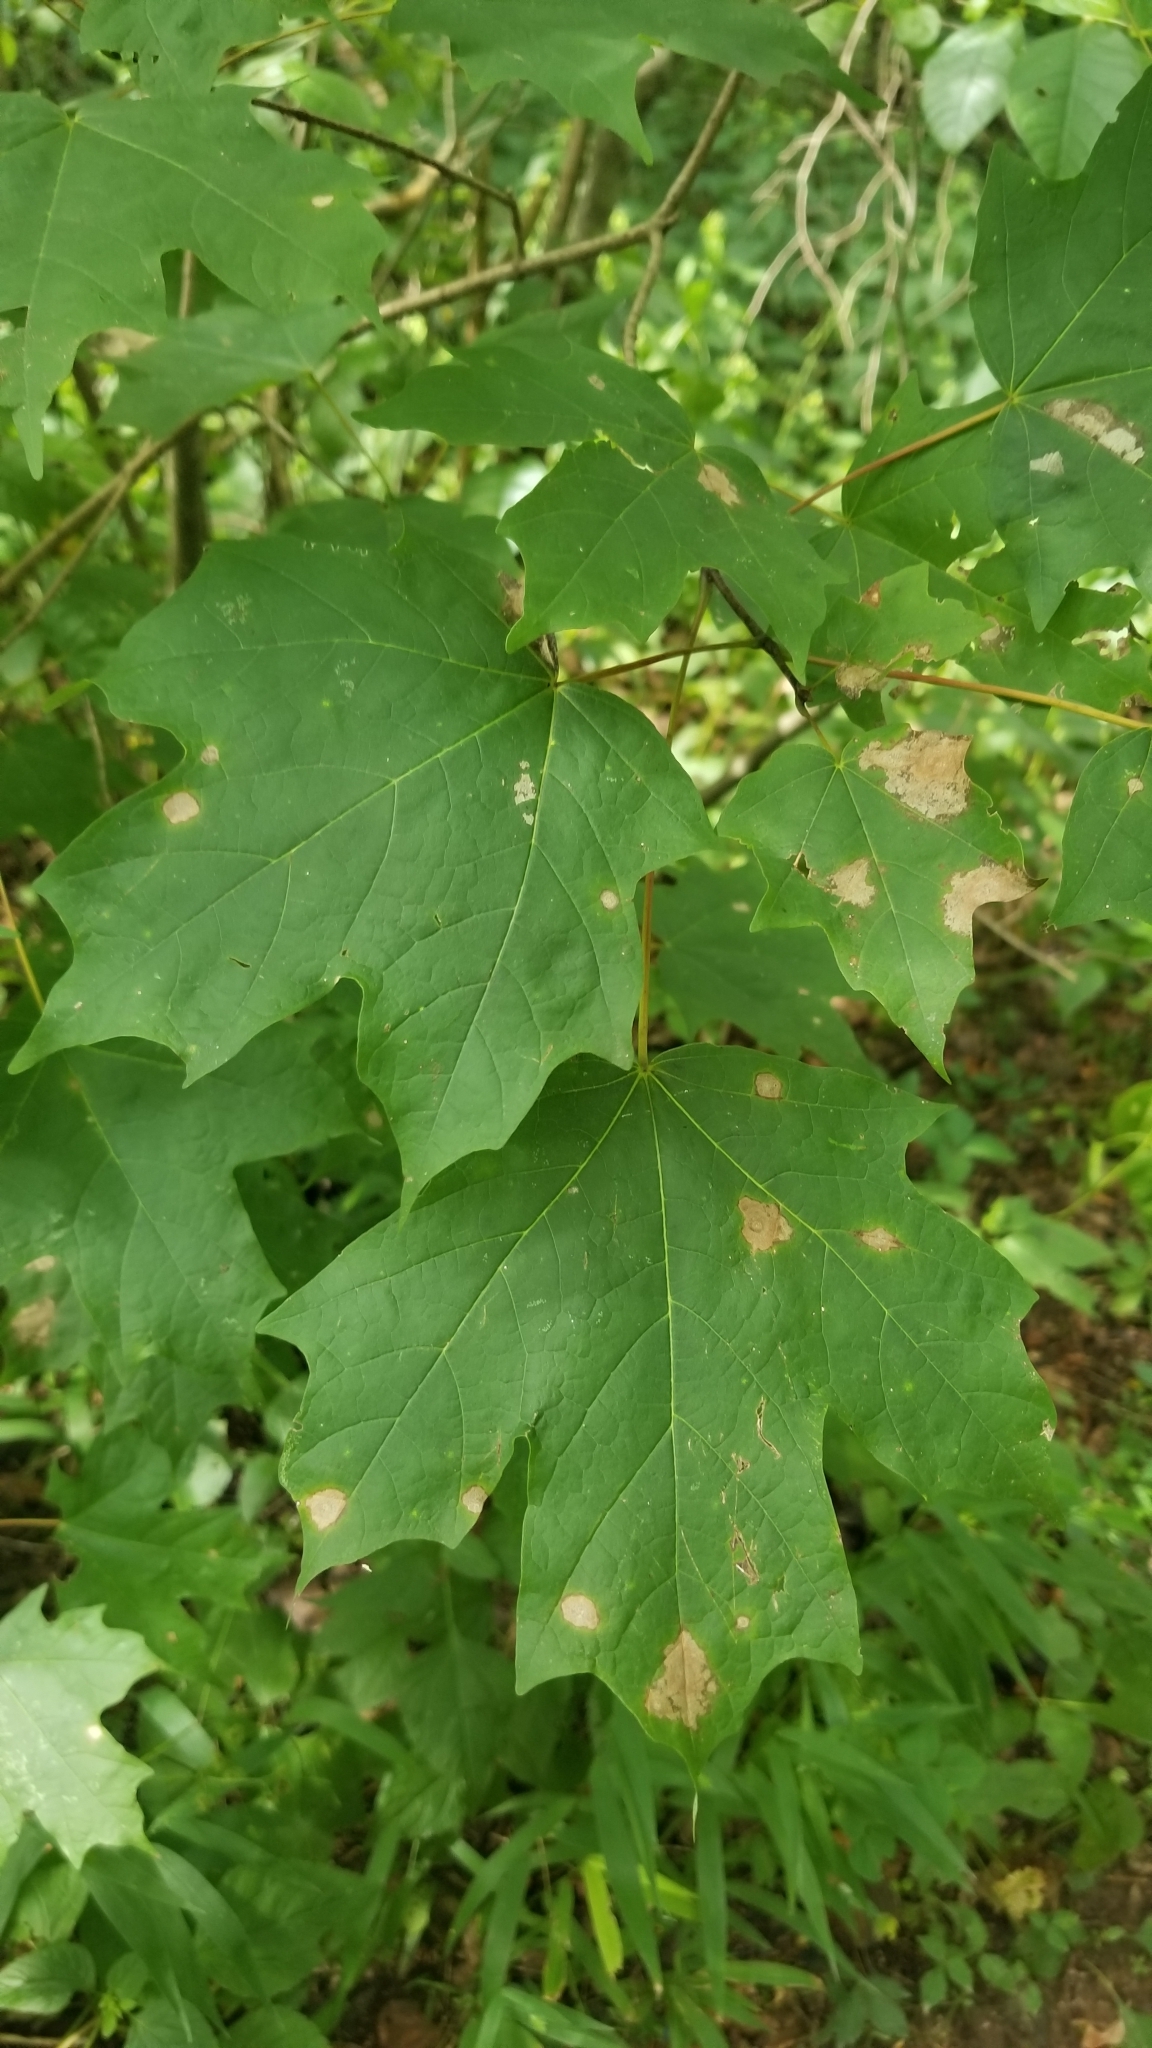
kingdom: Plantae
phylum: Tracheophyta
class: Magnoliopsida
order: Sapindales
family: Sapindaceae
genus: Acer
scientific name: Acer saccharum
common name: Sugar maple
